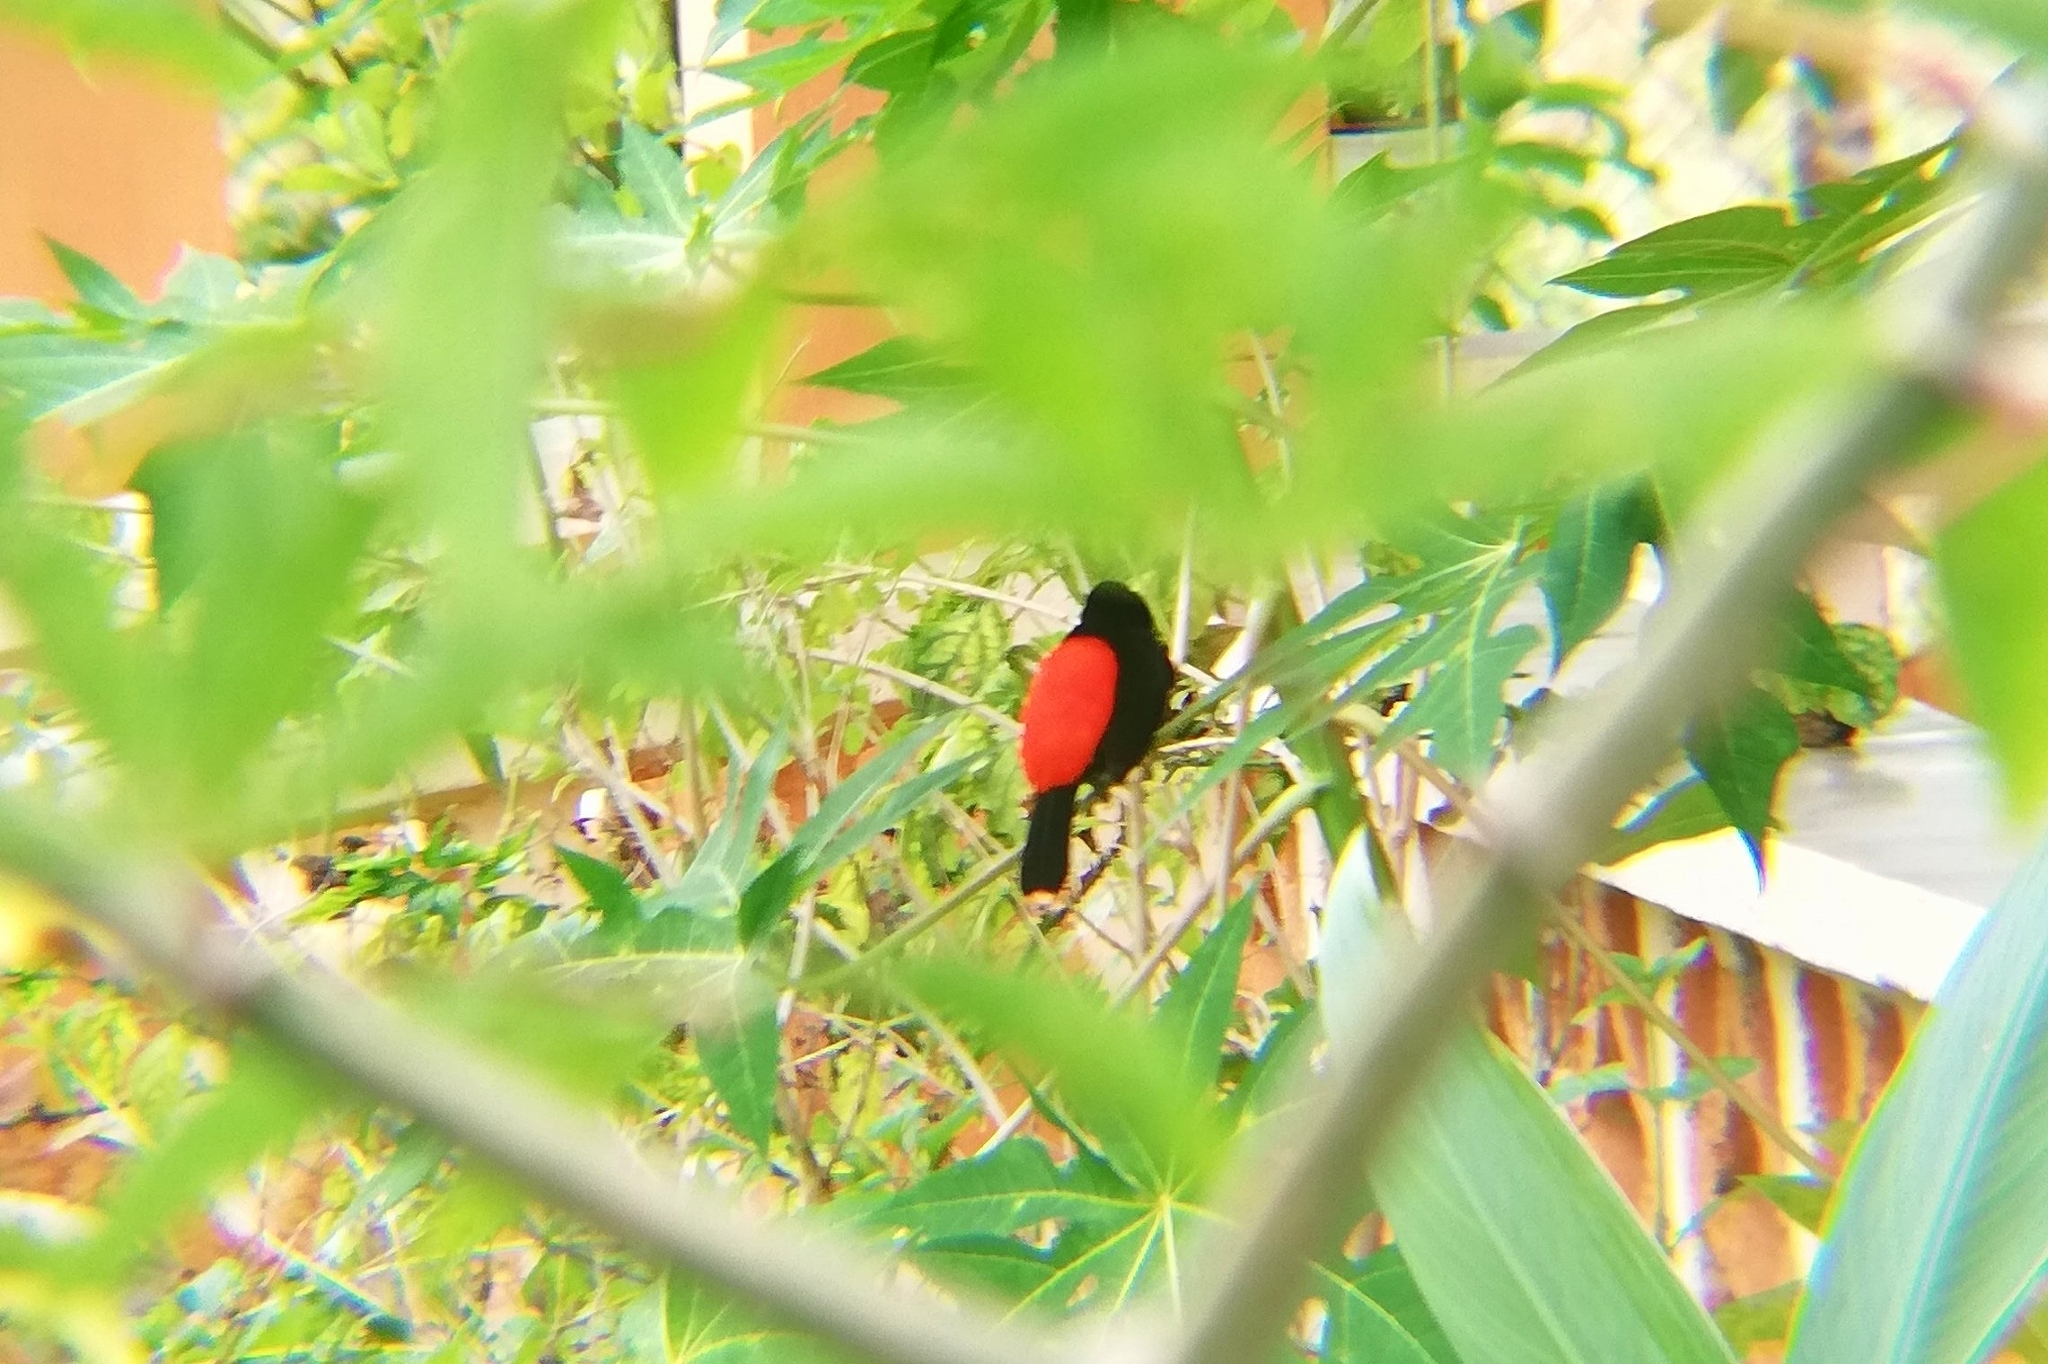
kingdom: Animalia
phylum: Chordata
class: Aves
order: Passeriformes
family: Thraupidae
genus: Ramphocelus
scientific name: Ramphocelus passerinii
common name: Passerini's tanager
